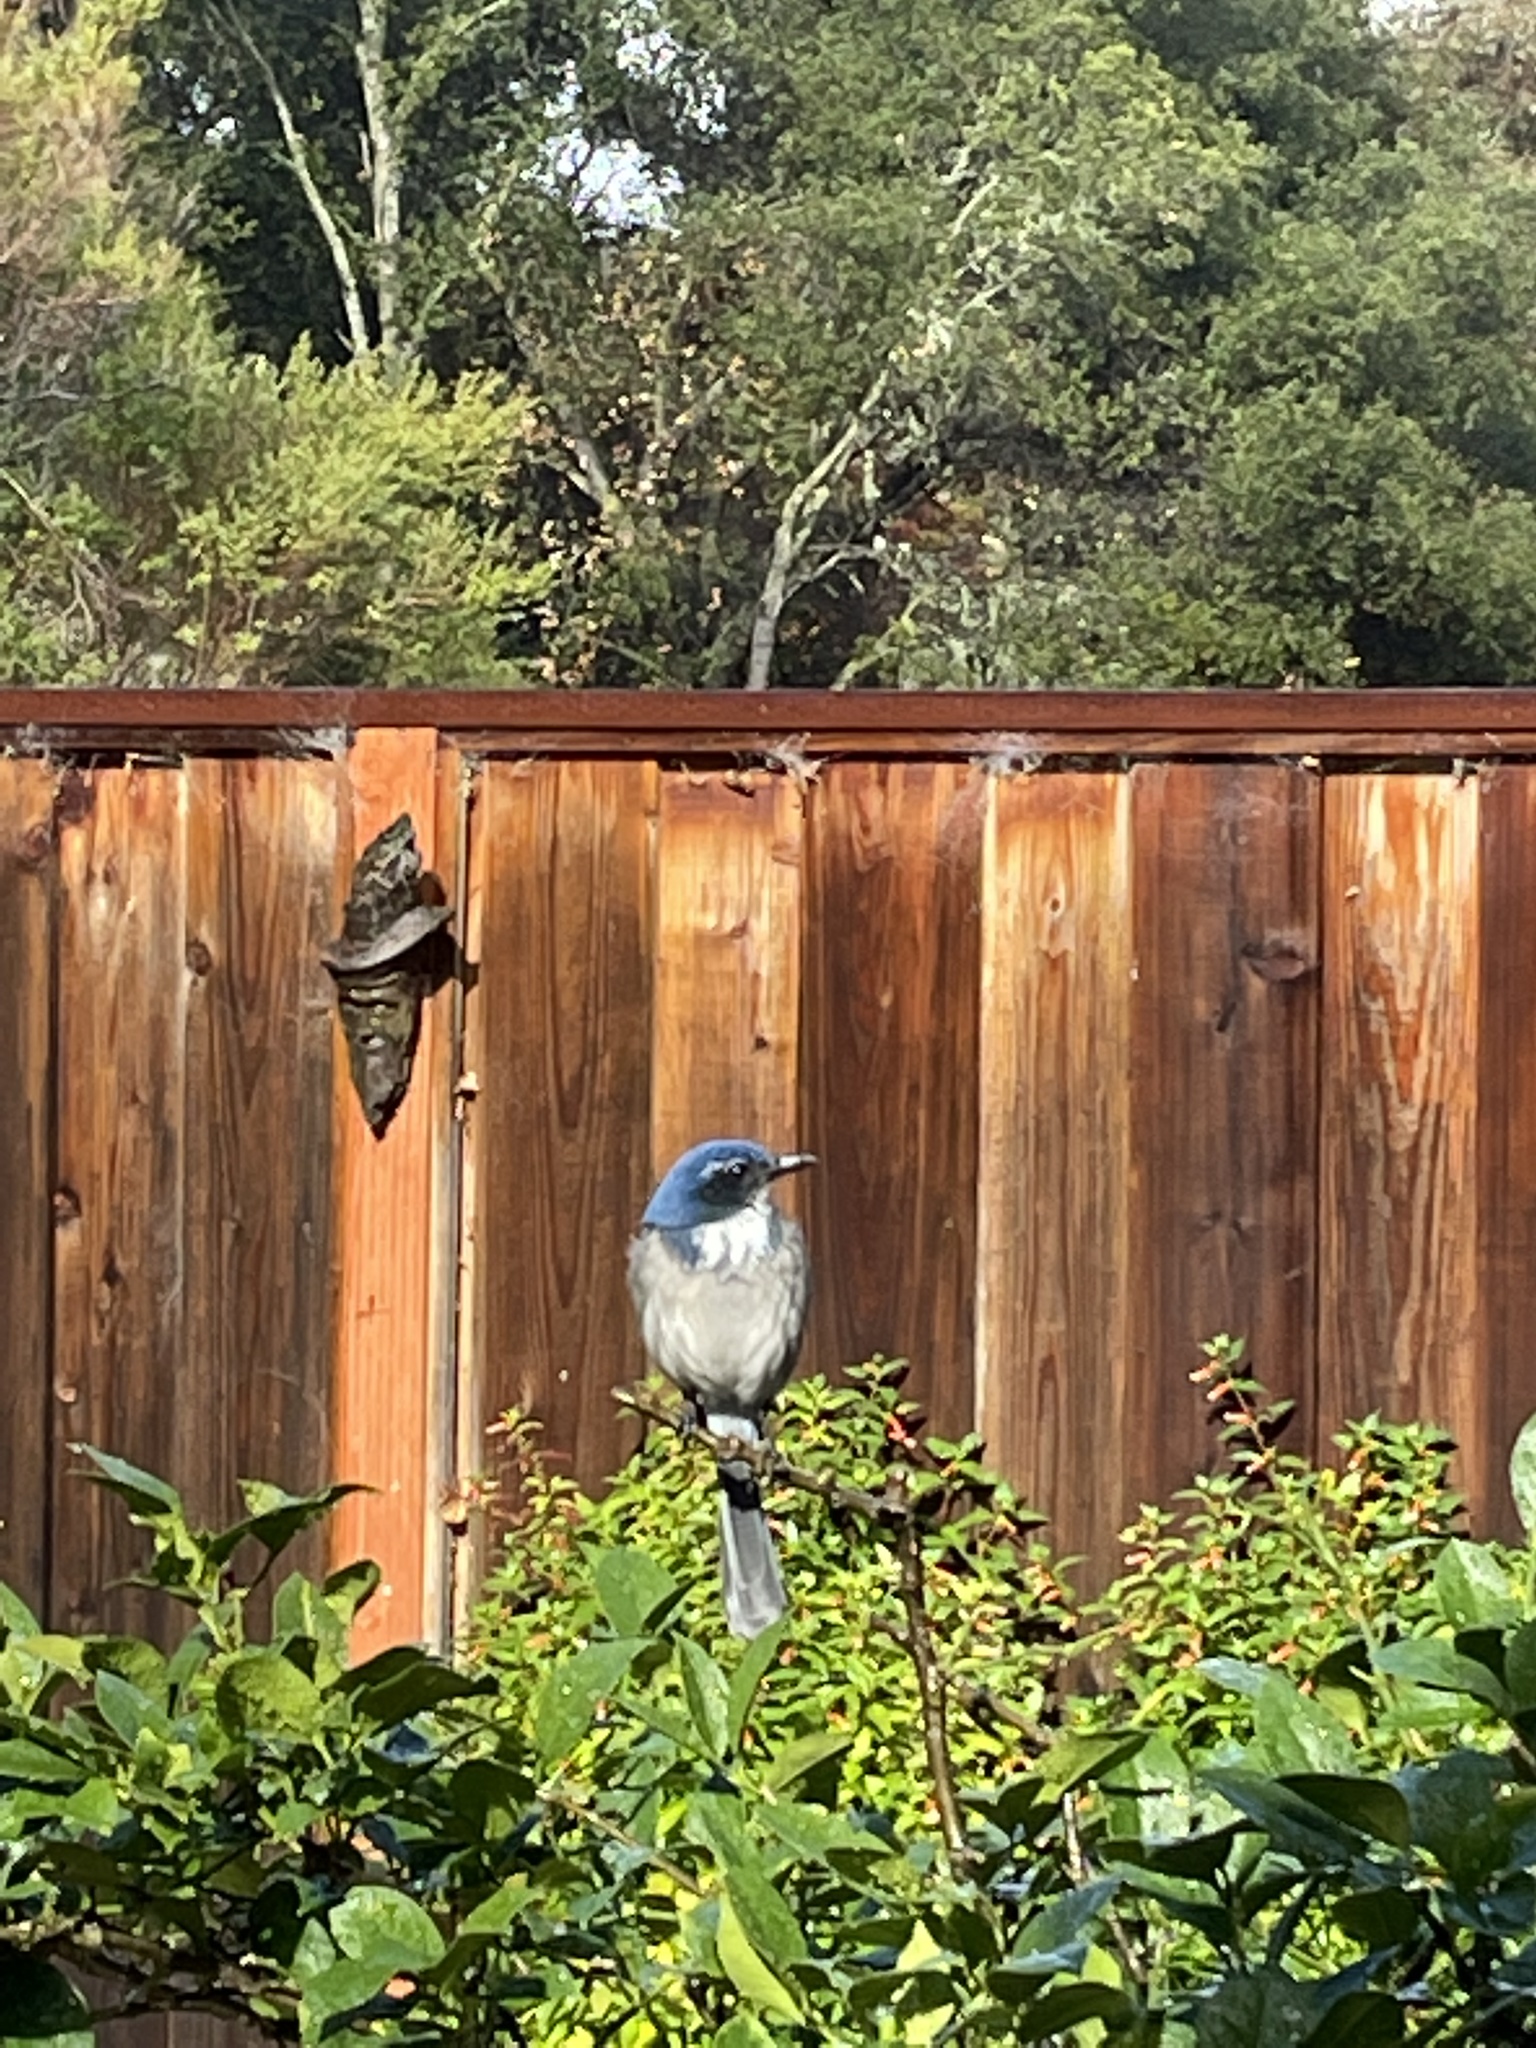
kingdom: Animalia
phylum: Chordata
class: Aves
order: Passeriformes
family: Corvidae
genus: Aphelocoma
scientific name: Aphelocoma californica
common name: California scrub-jay
